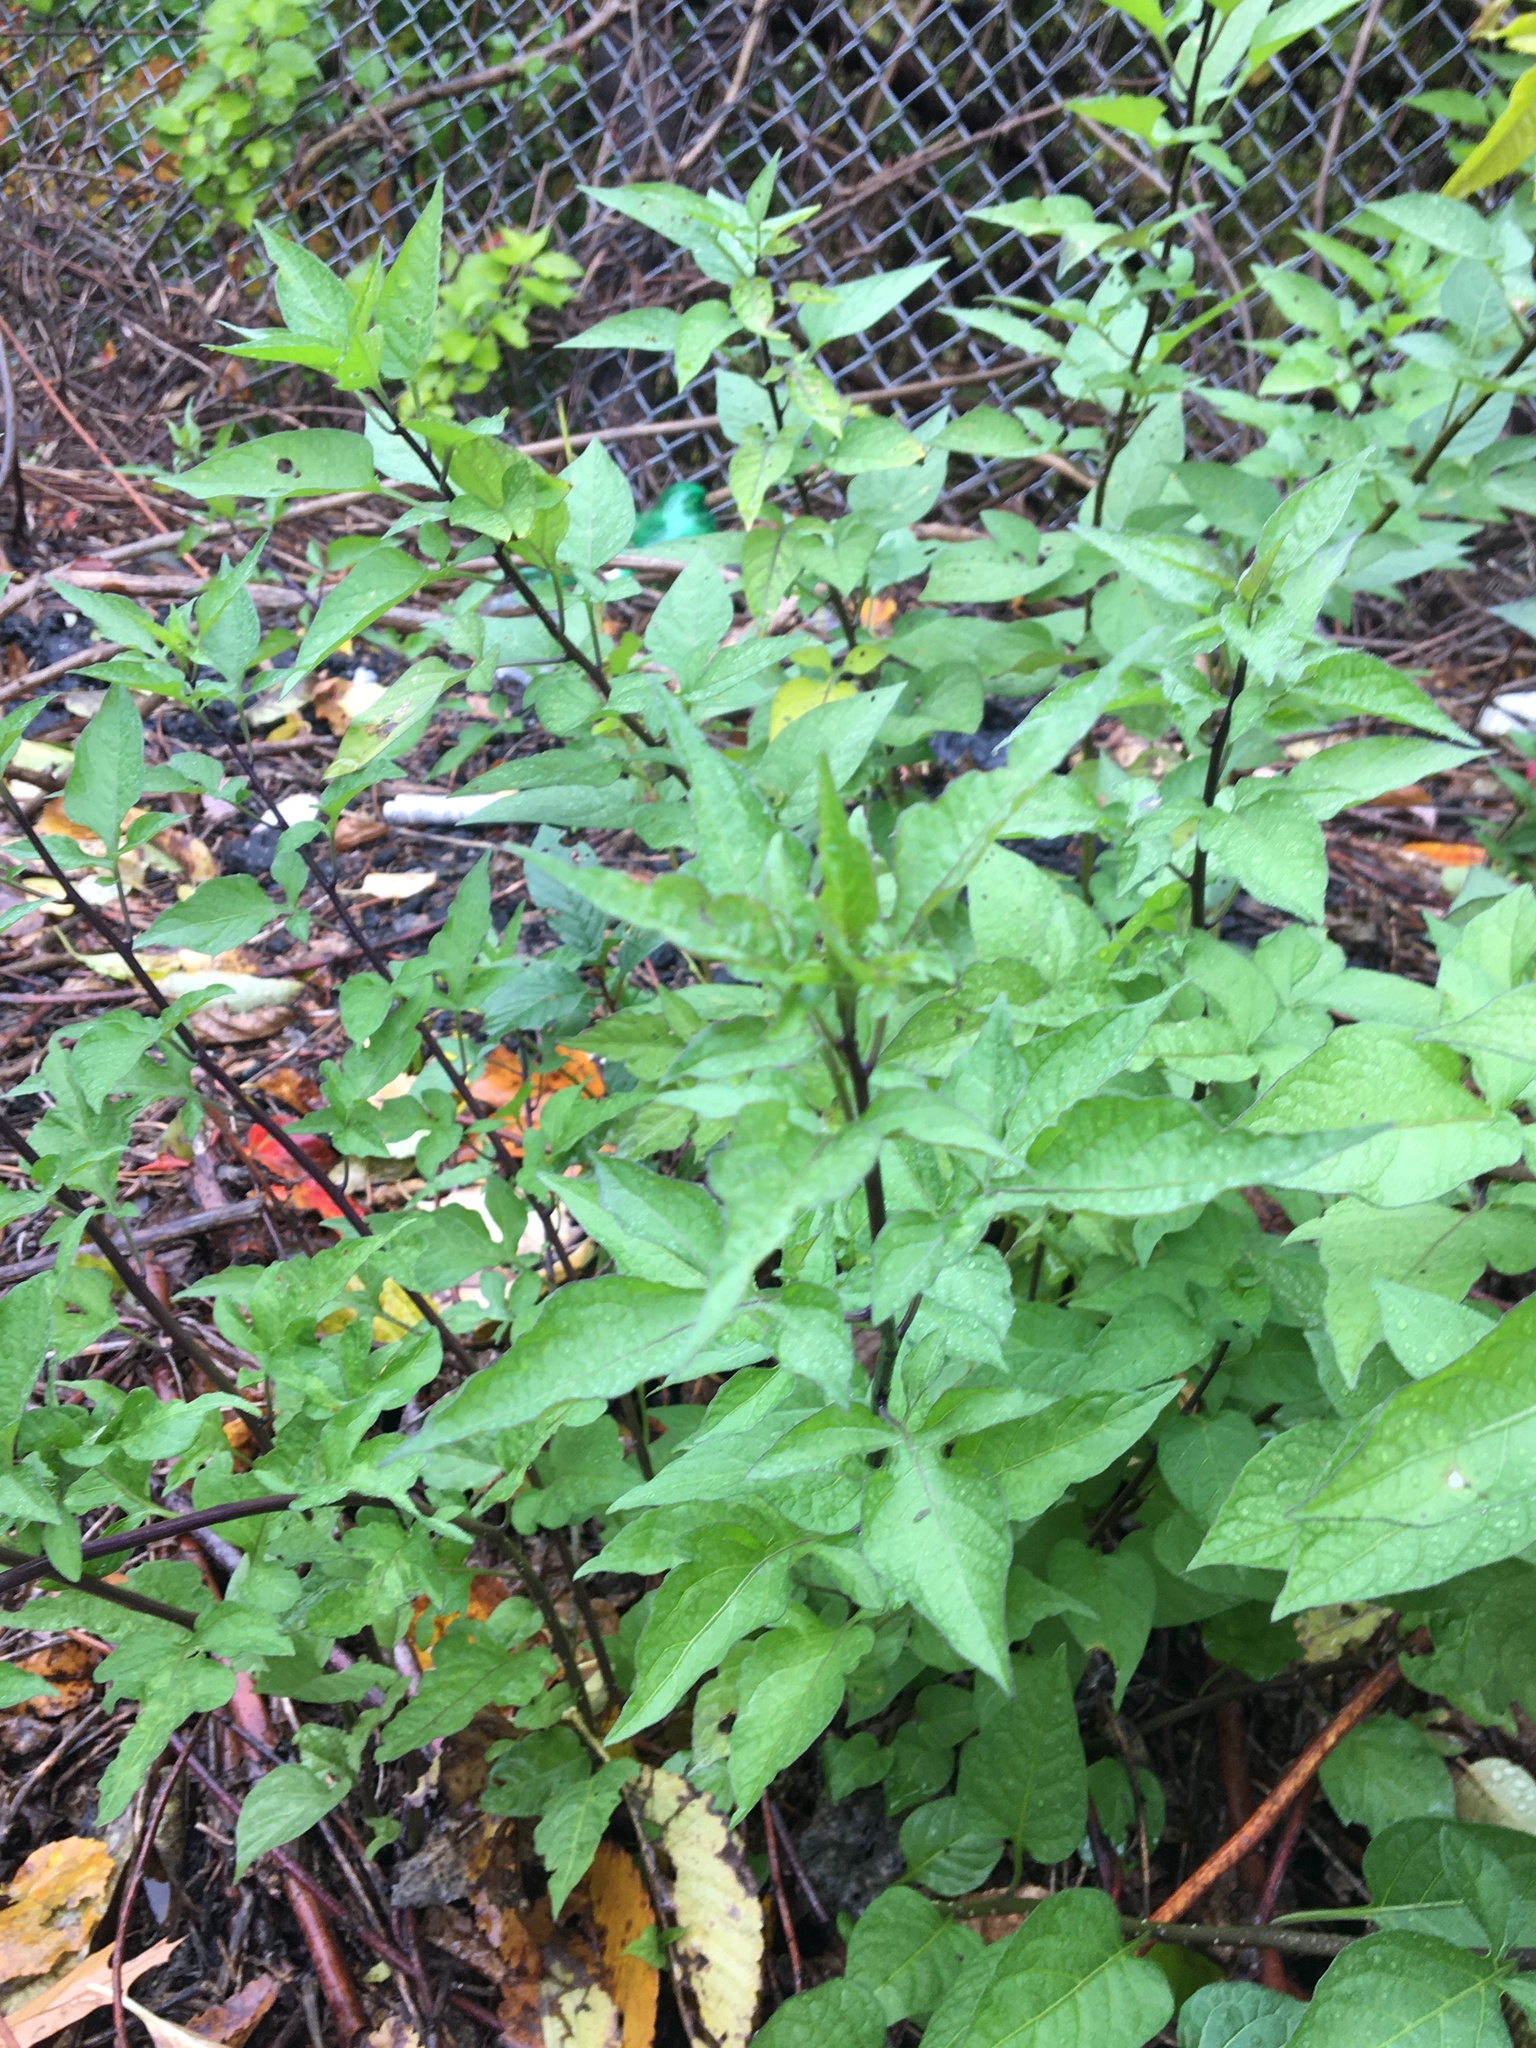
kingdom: Plantae
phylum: Tracheophyta
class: Magnoliopsida
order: Solanales
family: Solanaceae
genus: Solanum
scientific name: Solanum dulcamara
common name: Climbing nightshade
